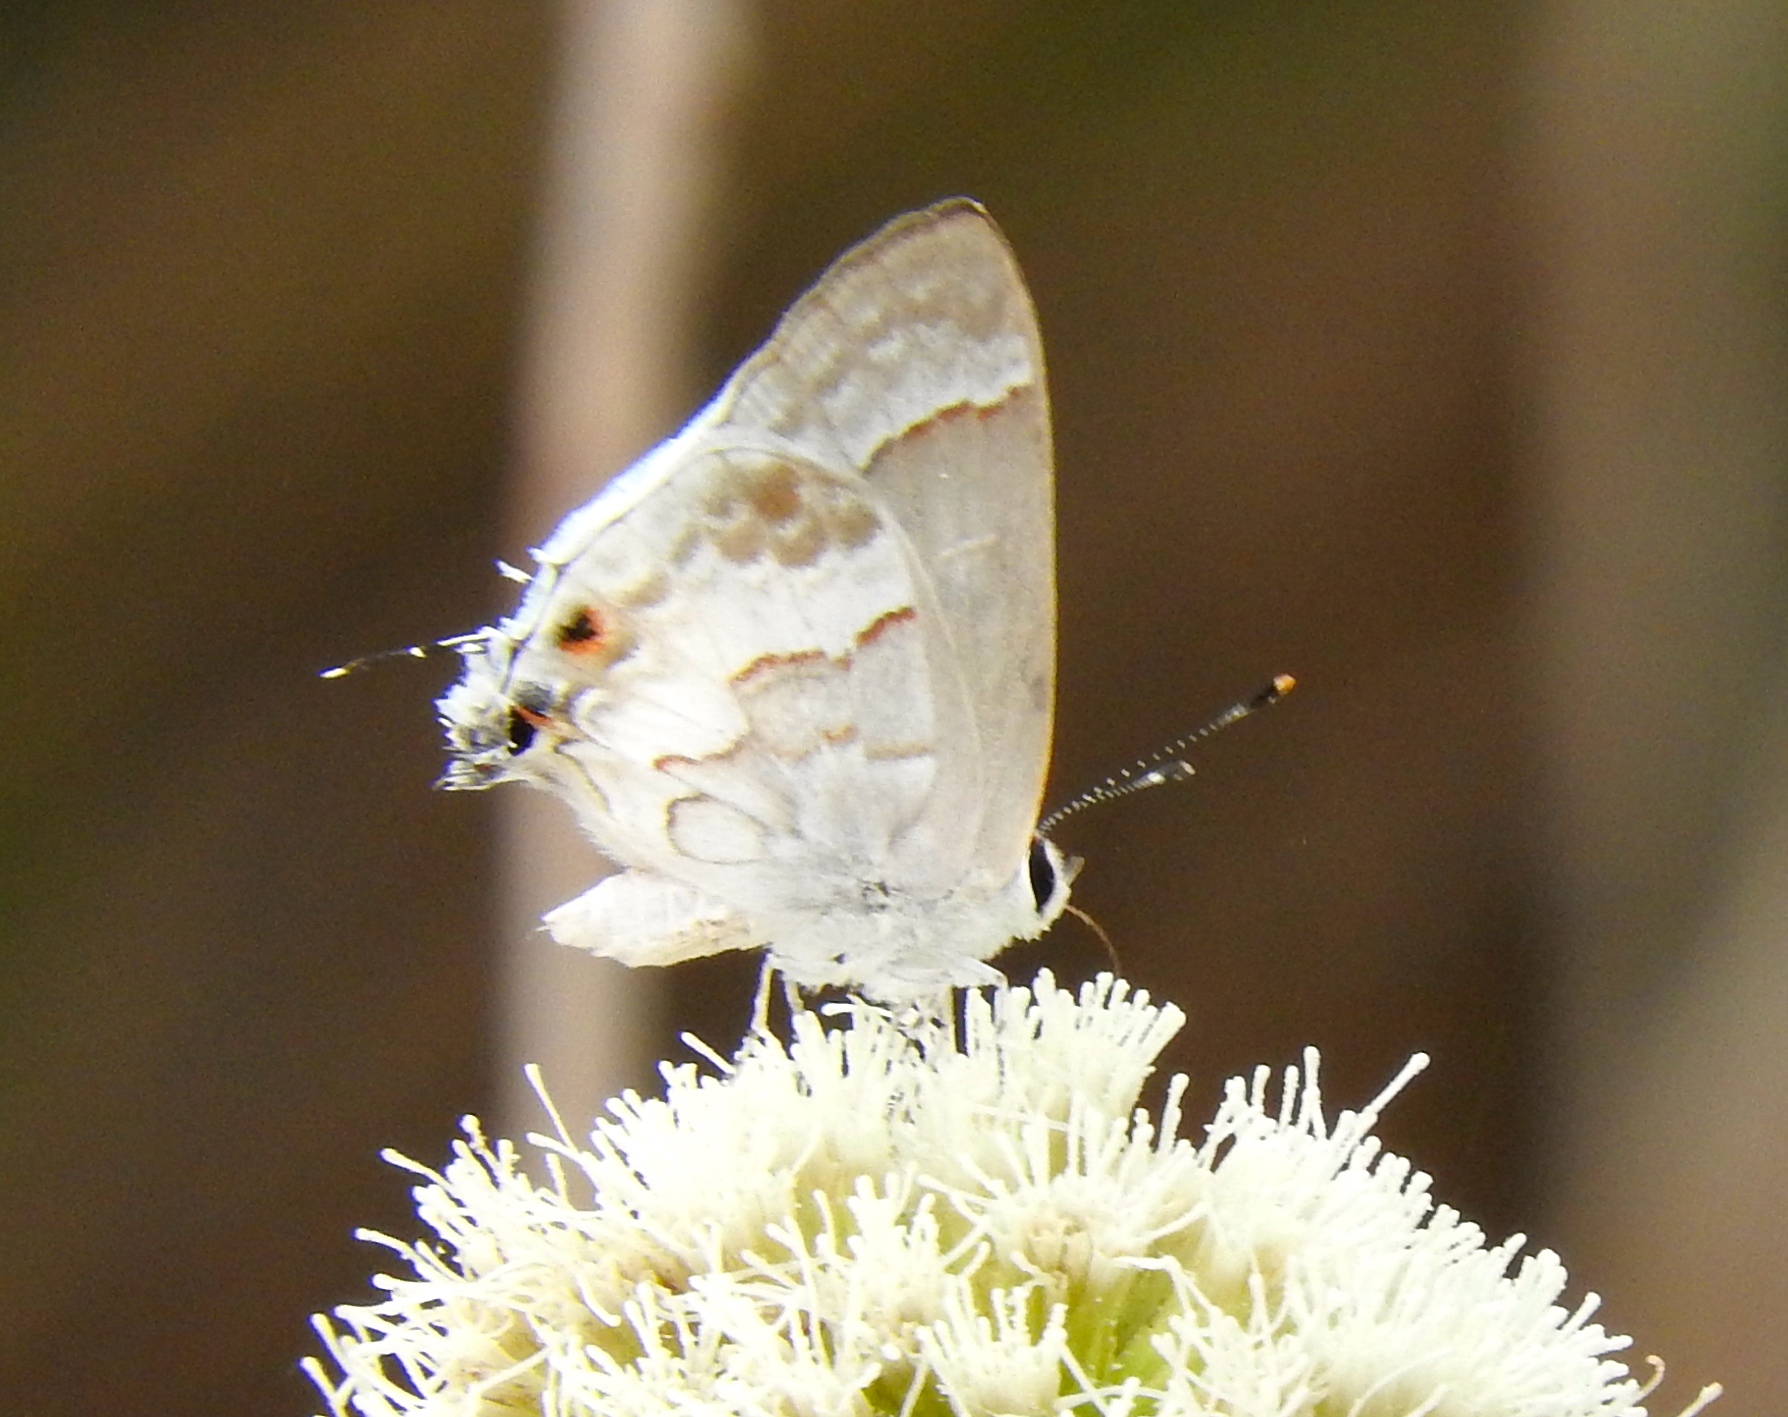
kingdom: Animalia
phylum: Arthropoda
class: Insecta
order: Lepidoptera
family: Lycaenidae
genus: Strymon
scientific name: Strymon albata
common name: White scrub-hairstreak
